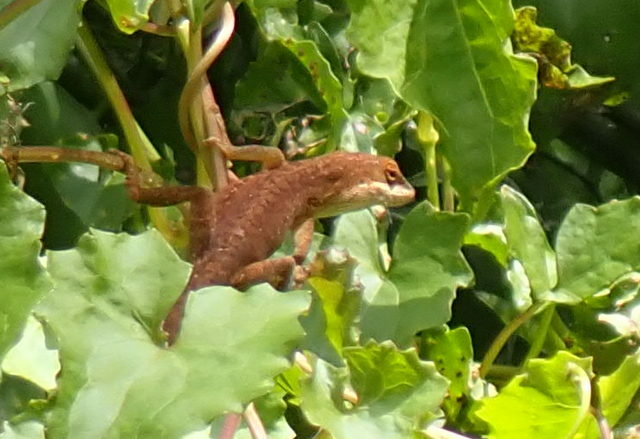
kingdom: Animalia
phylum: Chordata
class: Squamata
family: Dactyloidae
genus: Anolis
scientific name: Anolis carolinensis
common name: Green anole
